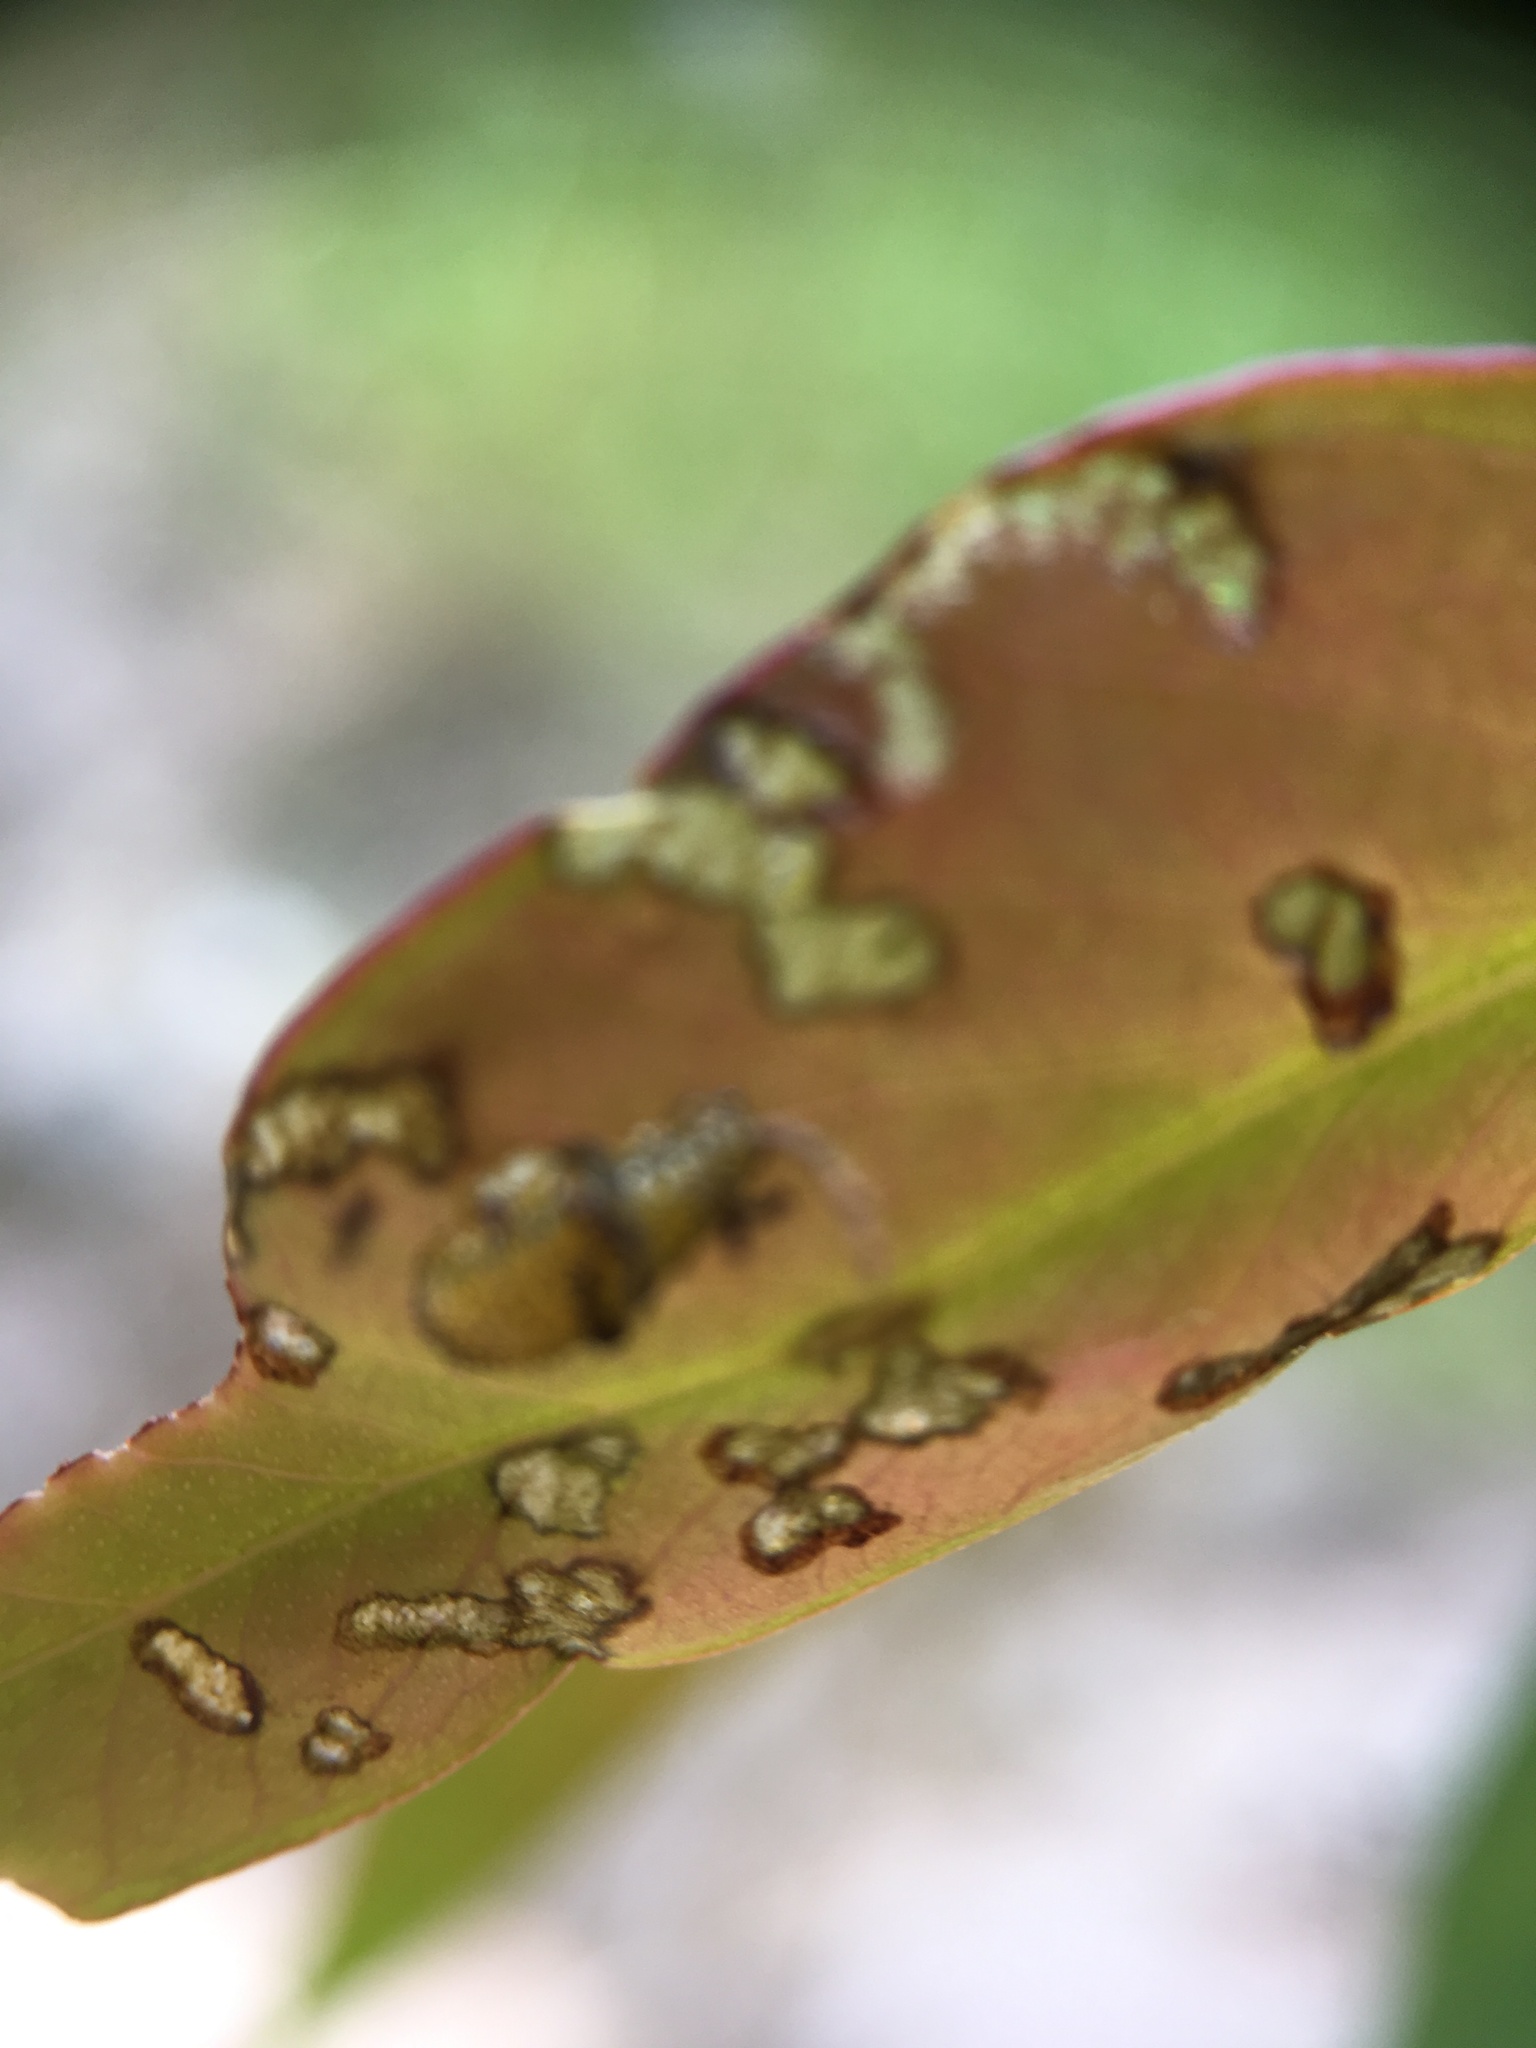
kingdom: Animalia
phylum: Arthropoda
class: Insecta
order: Coleoptera
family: Curculionidae
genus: Gonipterus
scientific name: Gonipterus platensis
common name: Eucalyptus snout beetle
